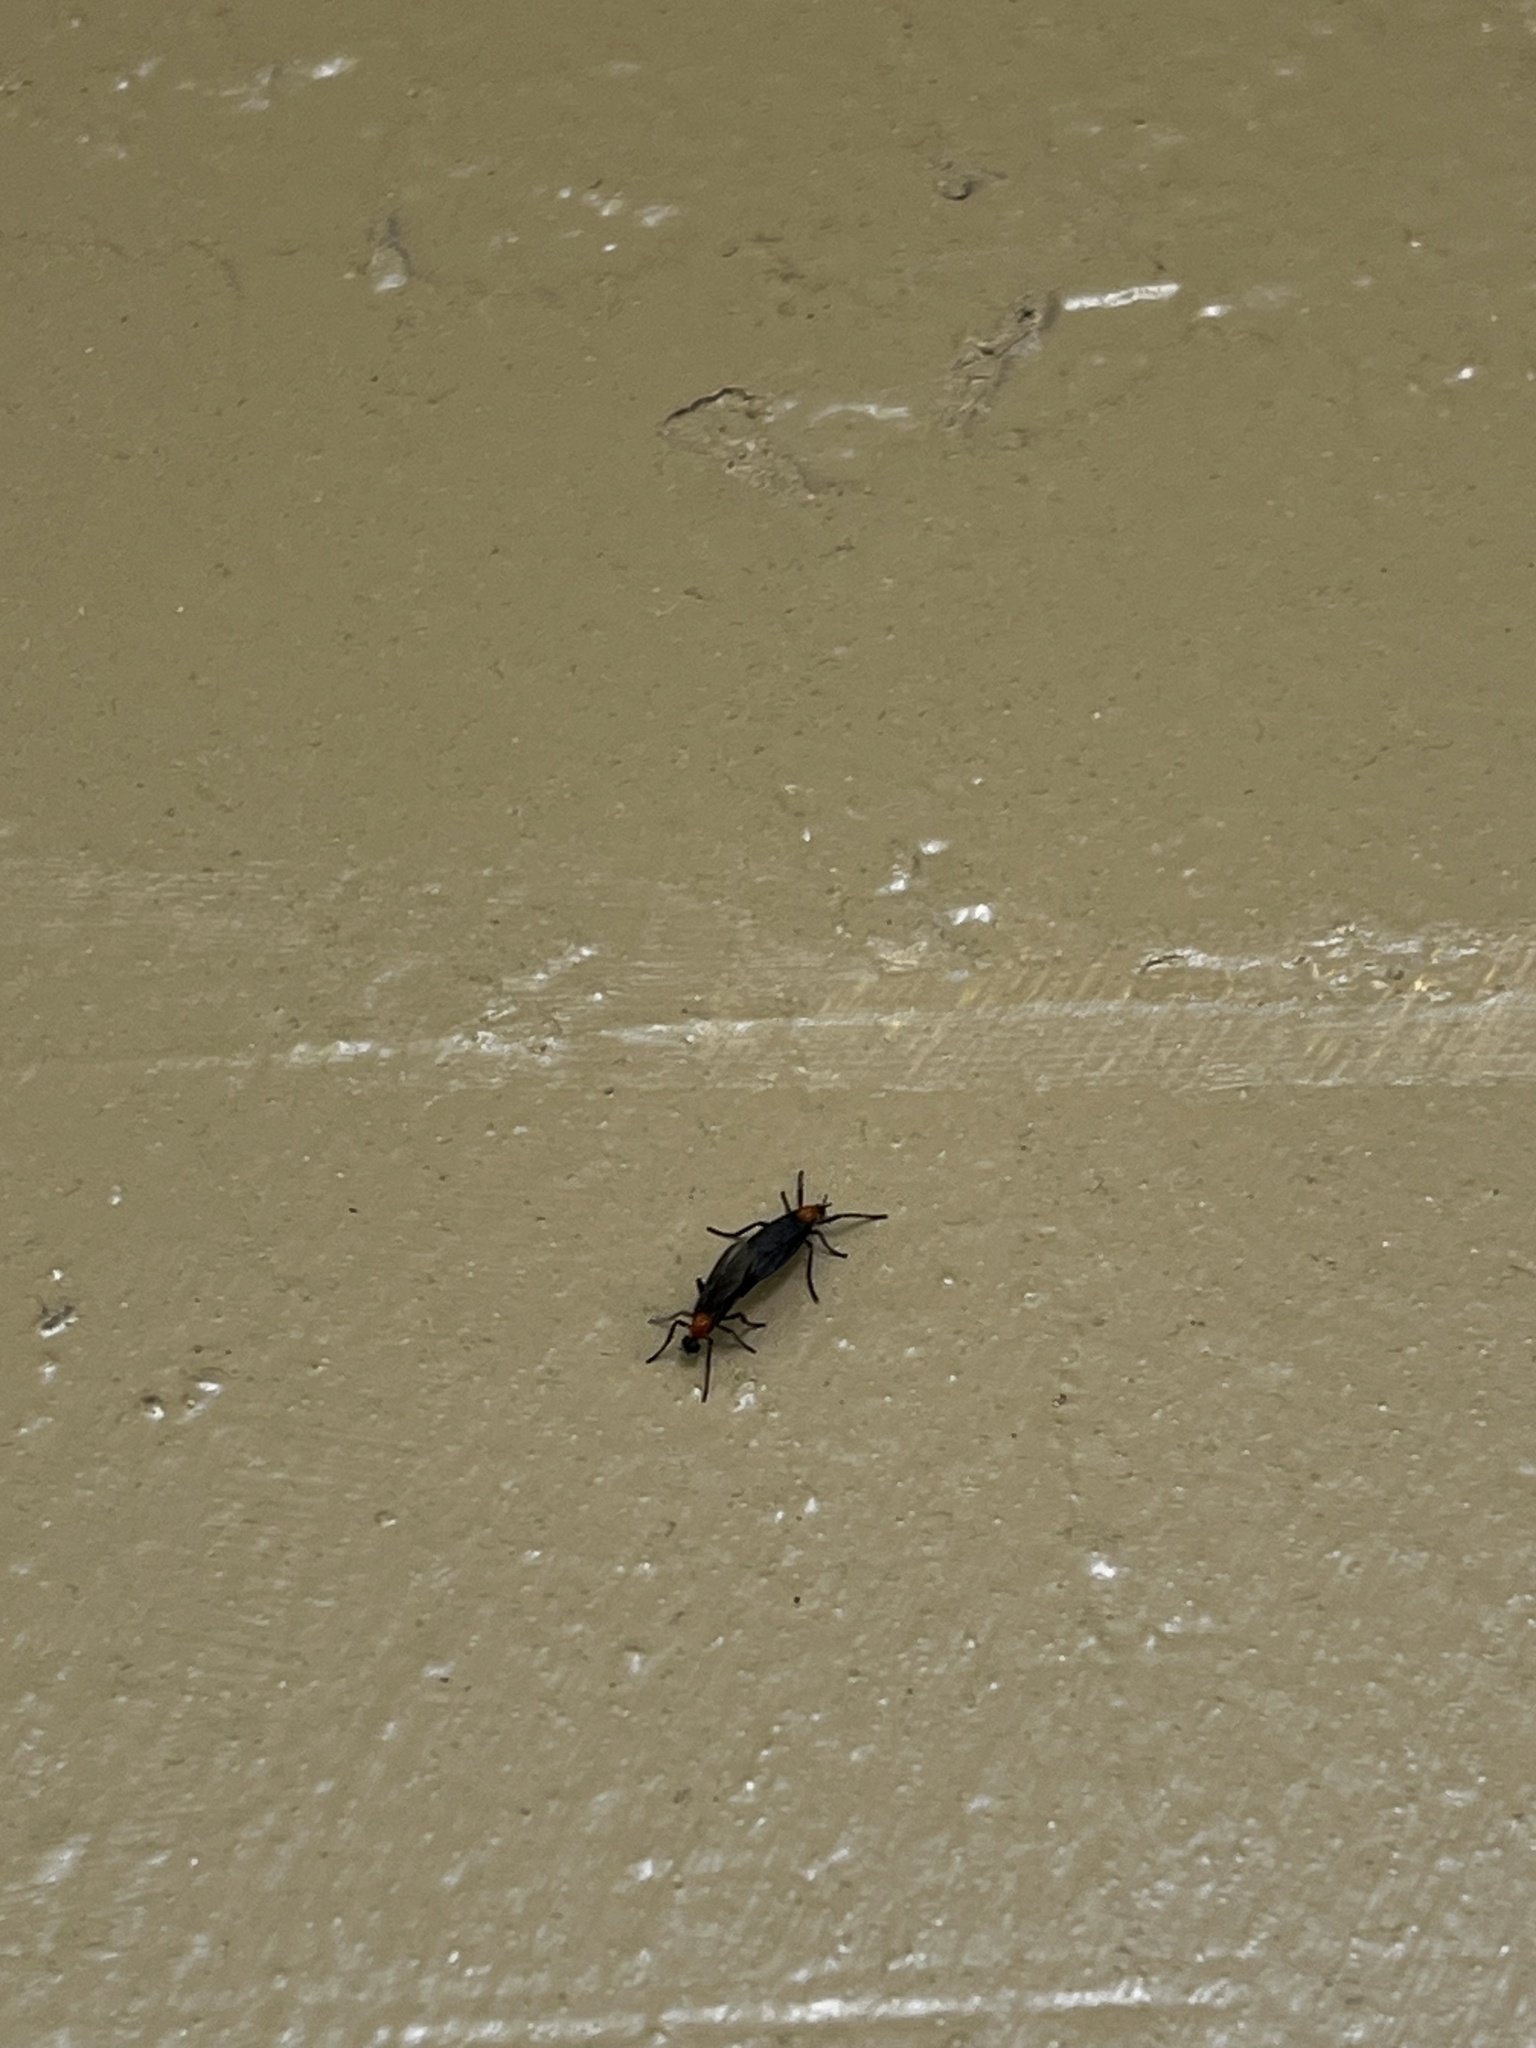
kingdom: Animalia
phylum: Arthropoda
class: Insecta
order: Diptera
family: Bibionidae
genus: Plecia
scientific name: Plecia nearctica
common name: March fly
